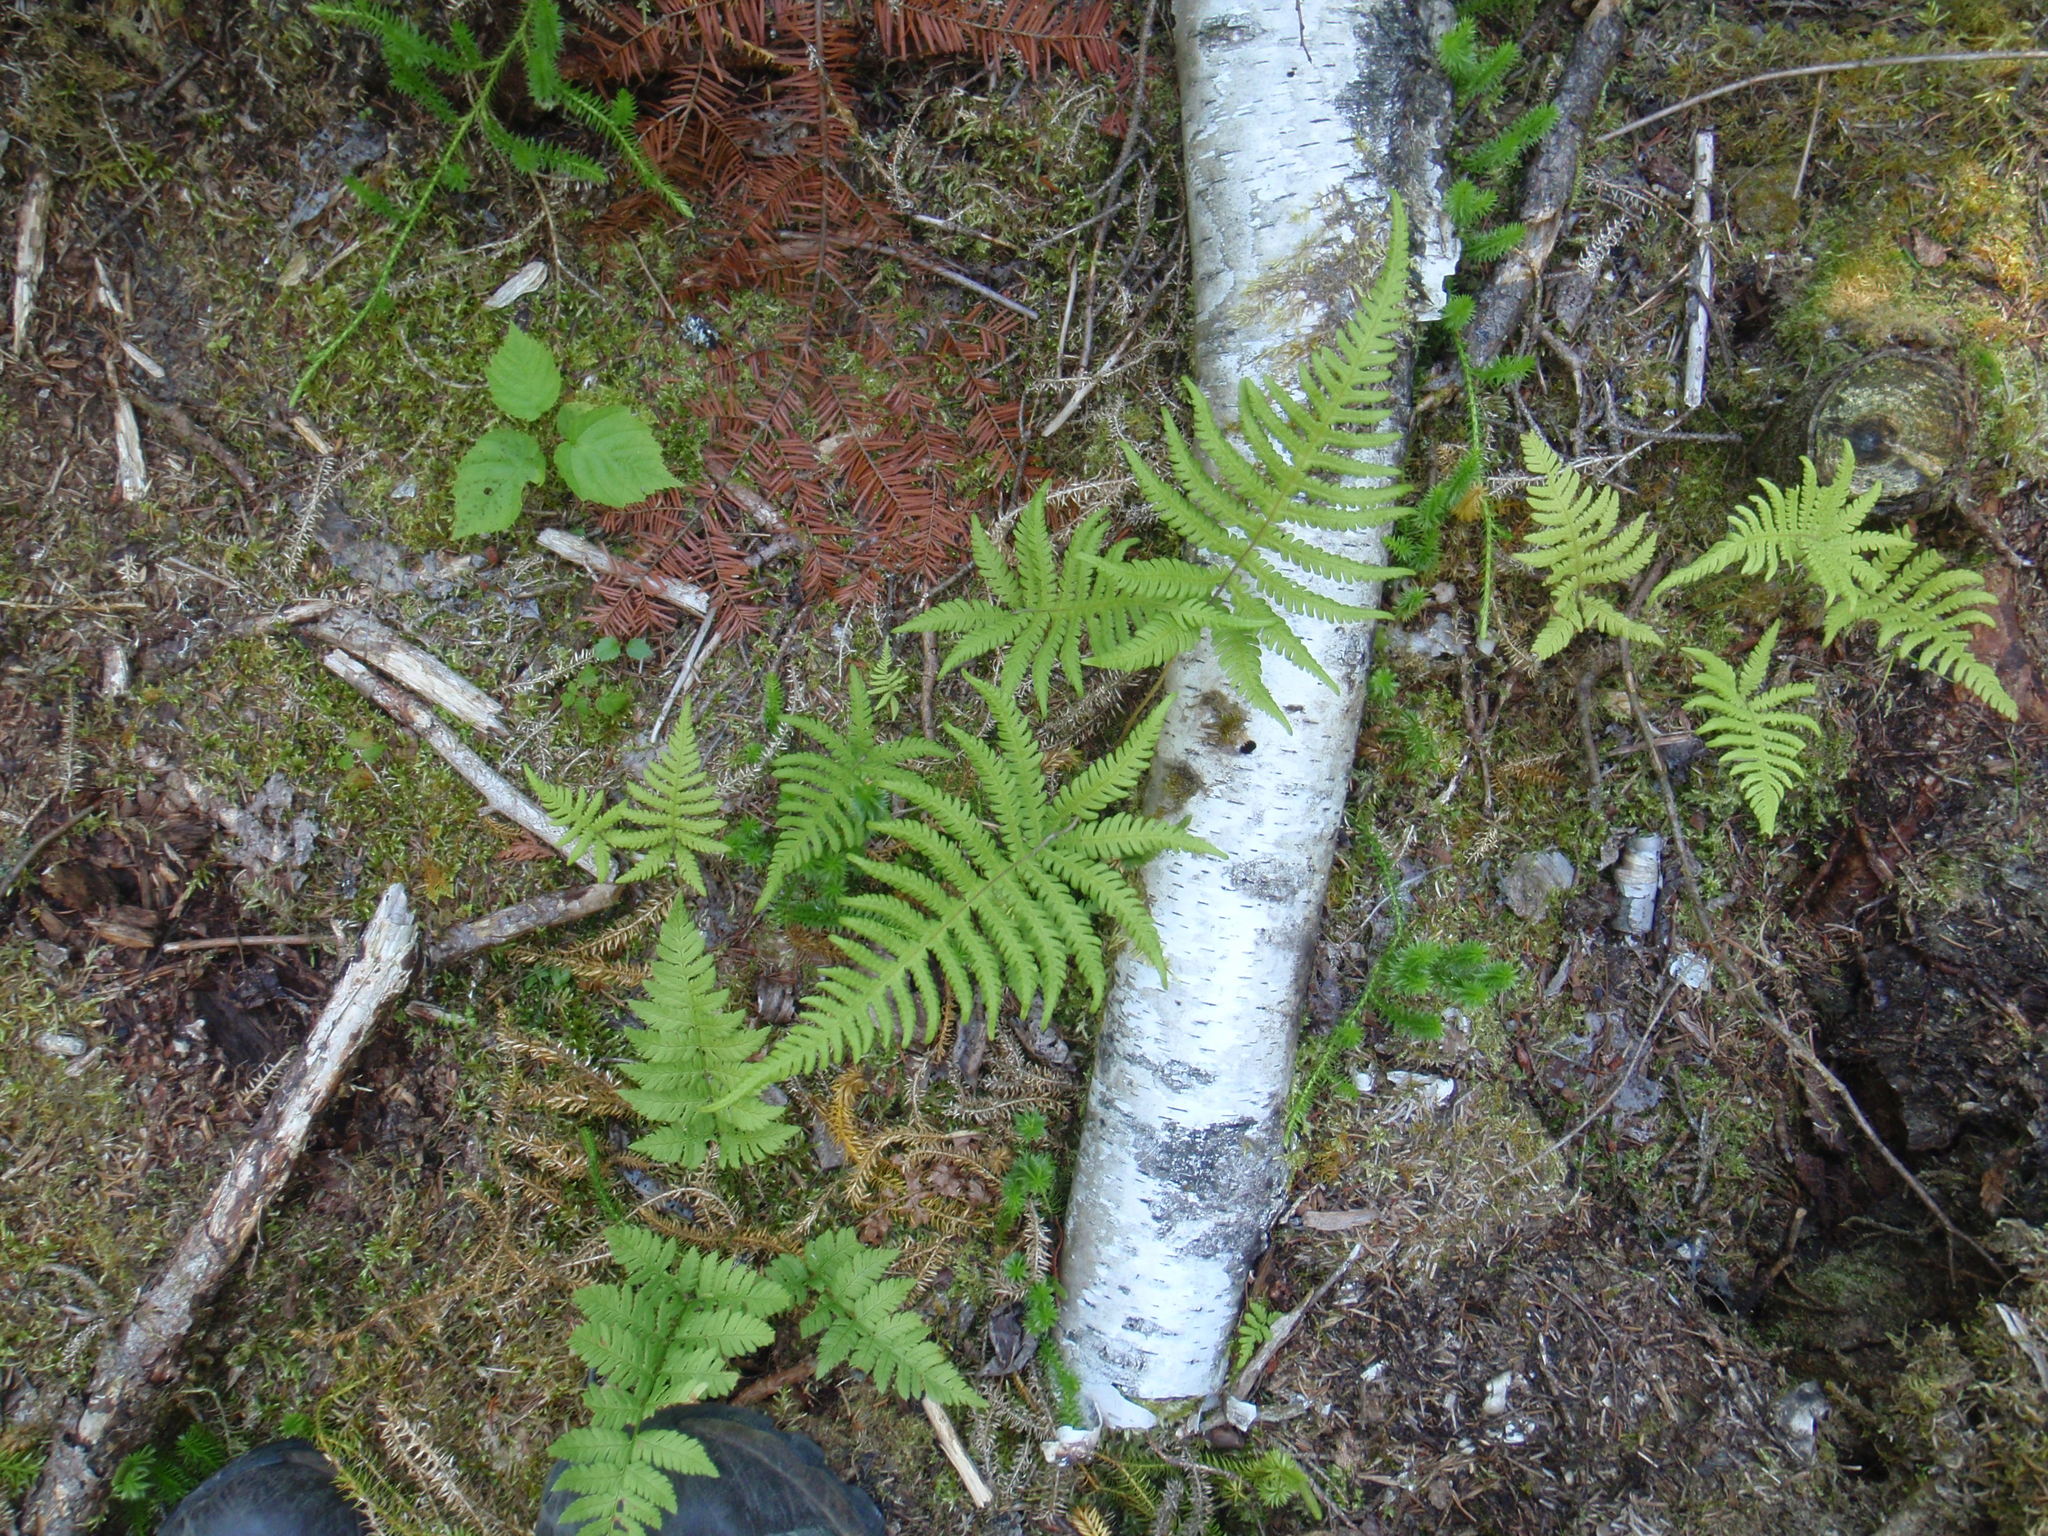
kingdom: Plantae
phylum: Tracheophyta
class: Polypodiopsida
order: Polypodiales
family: Thelypteridaceae
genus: Phegopteris
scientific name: Phegopteris connectilis
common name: Beech fern
